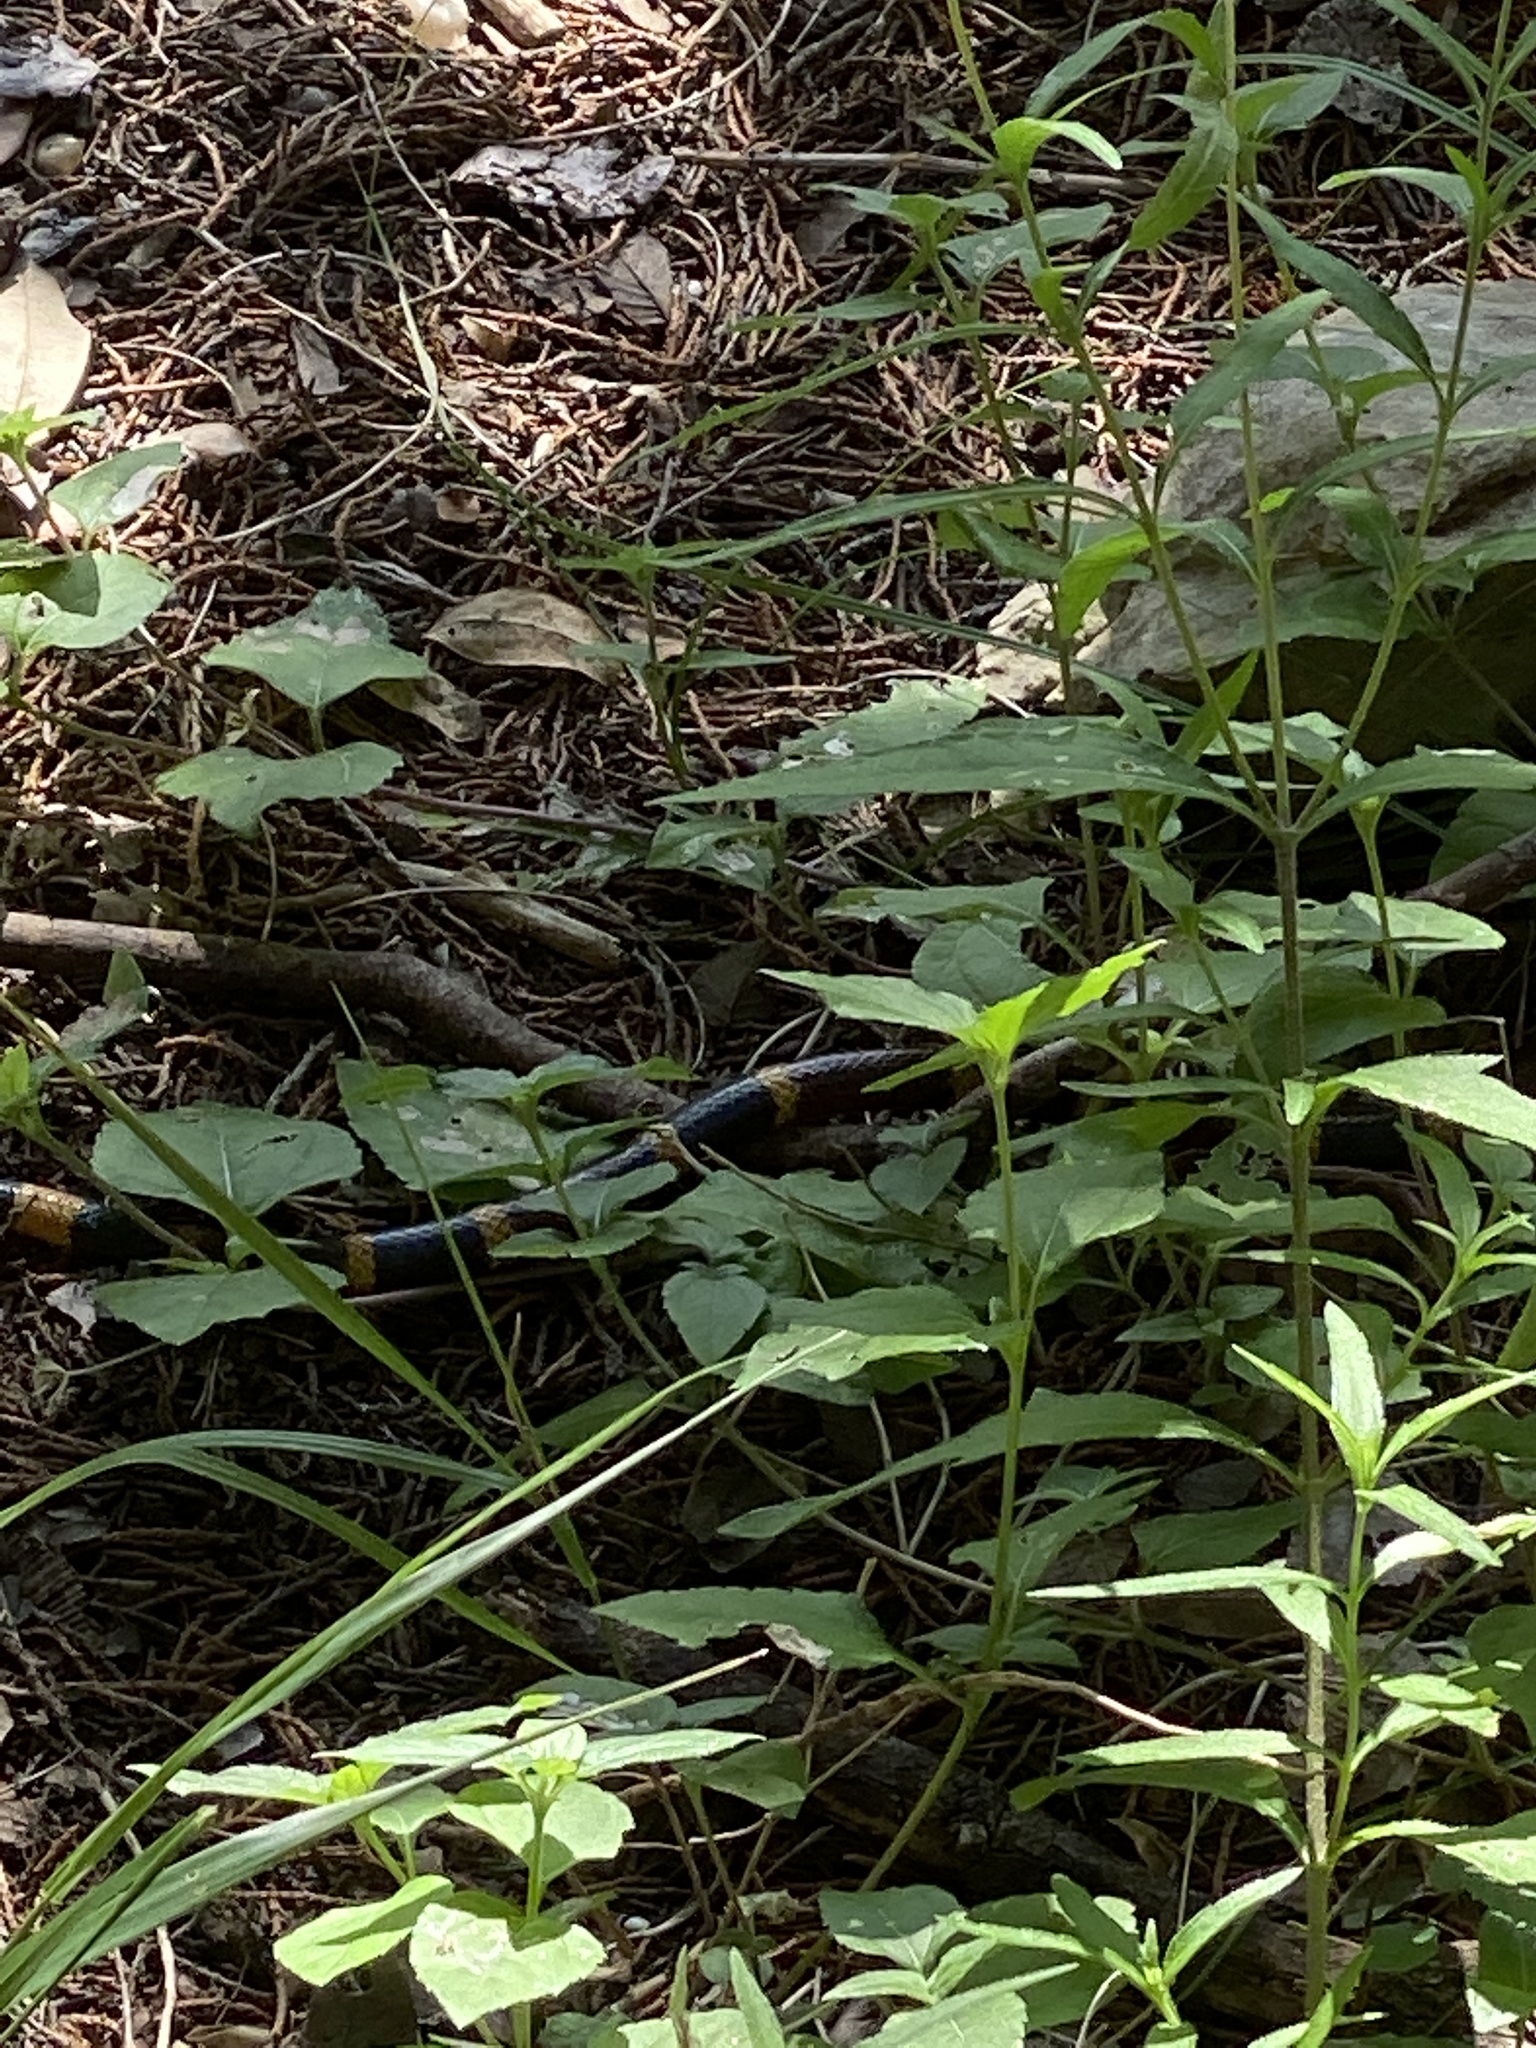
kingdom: Animalia
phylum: Chordata
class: Squamata
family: Elapidae
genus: Micrurus
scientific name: Micrurus tener
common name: Texas coral snake
